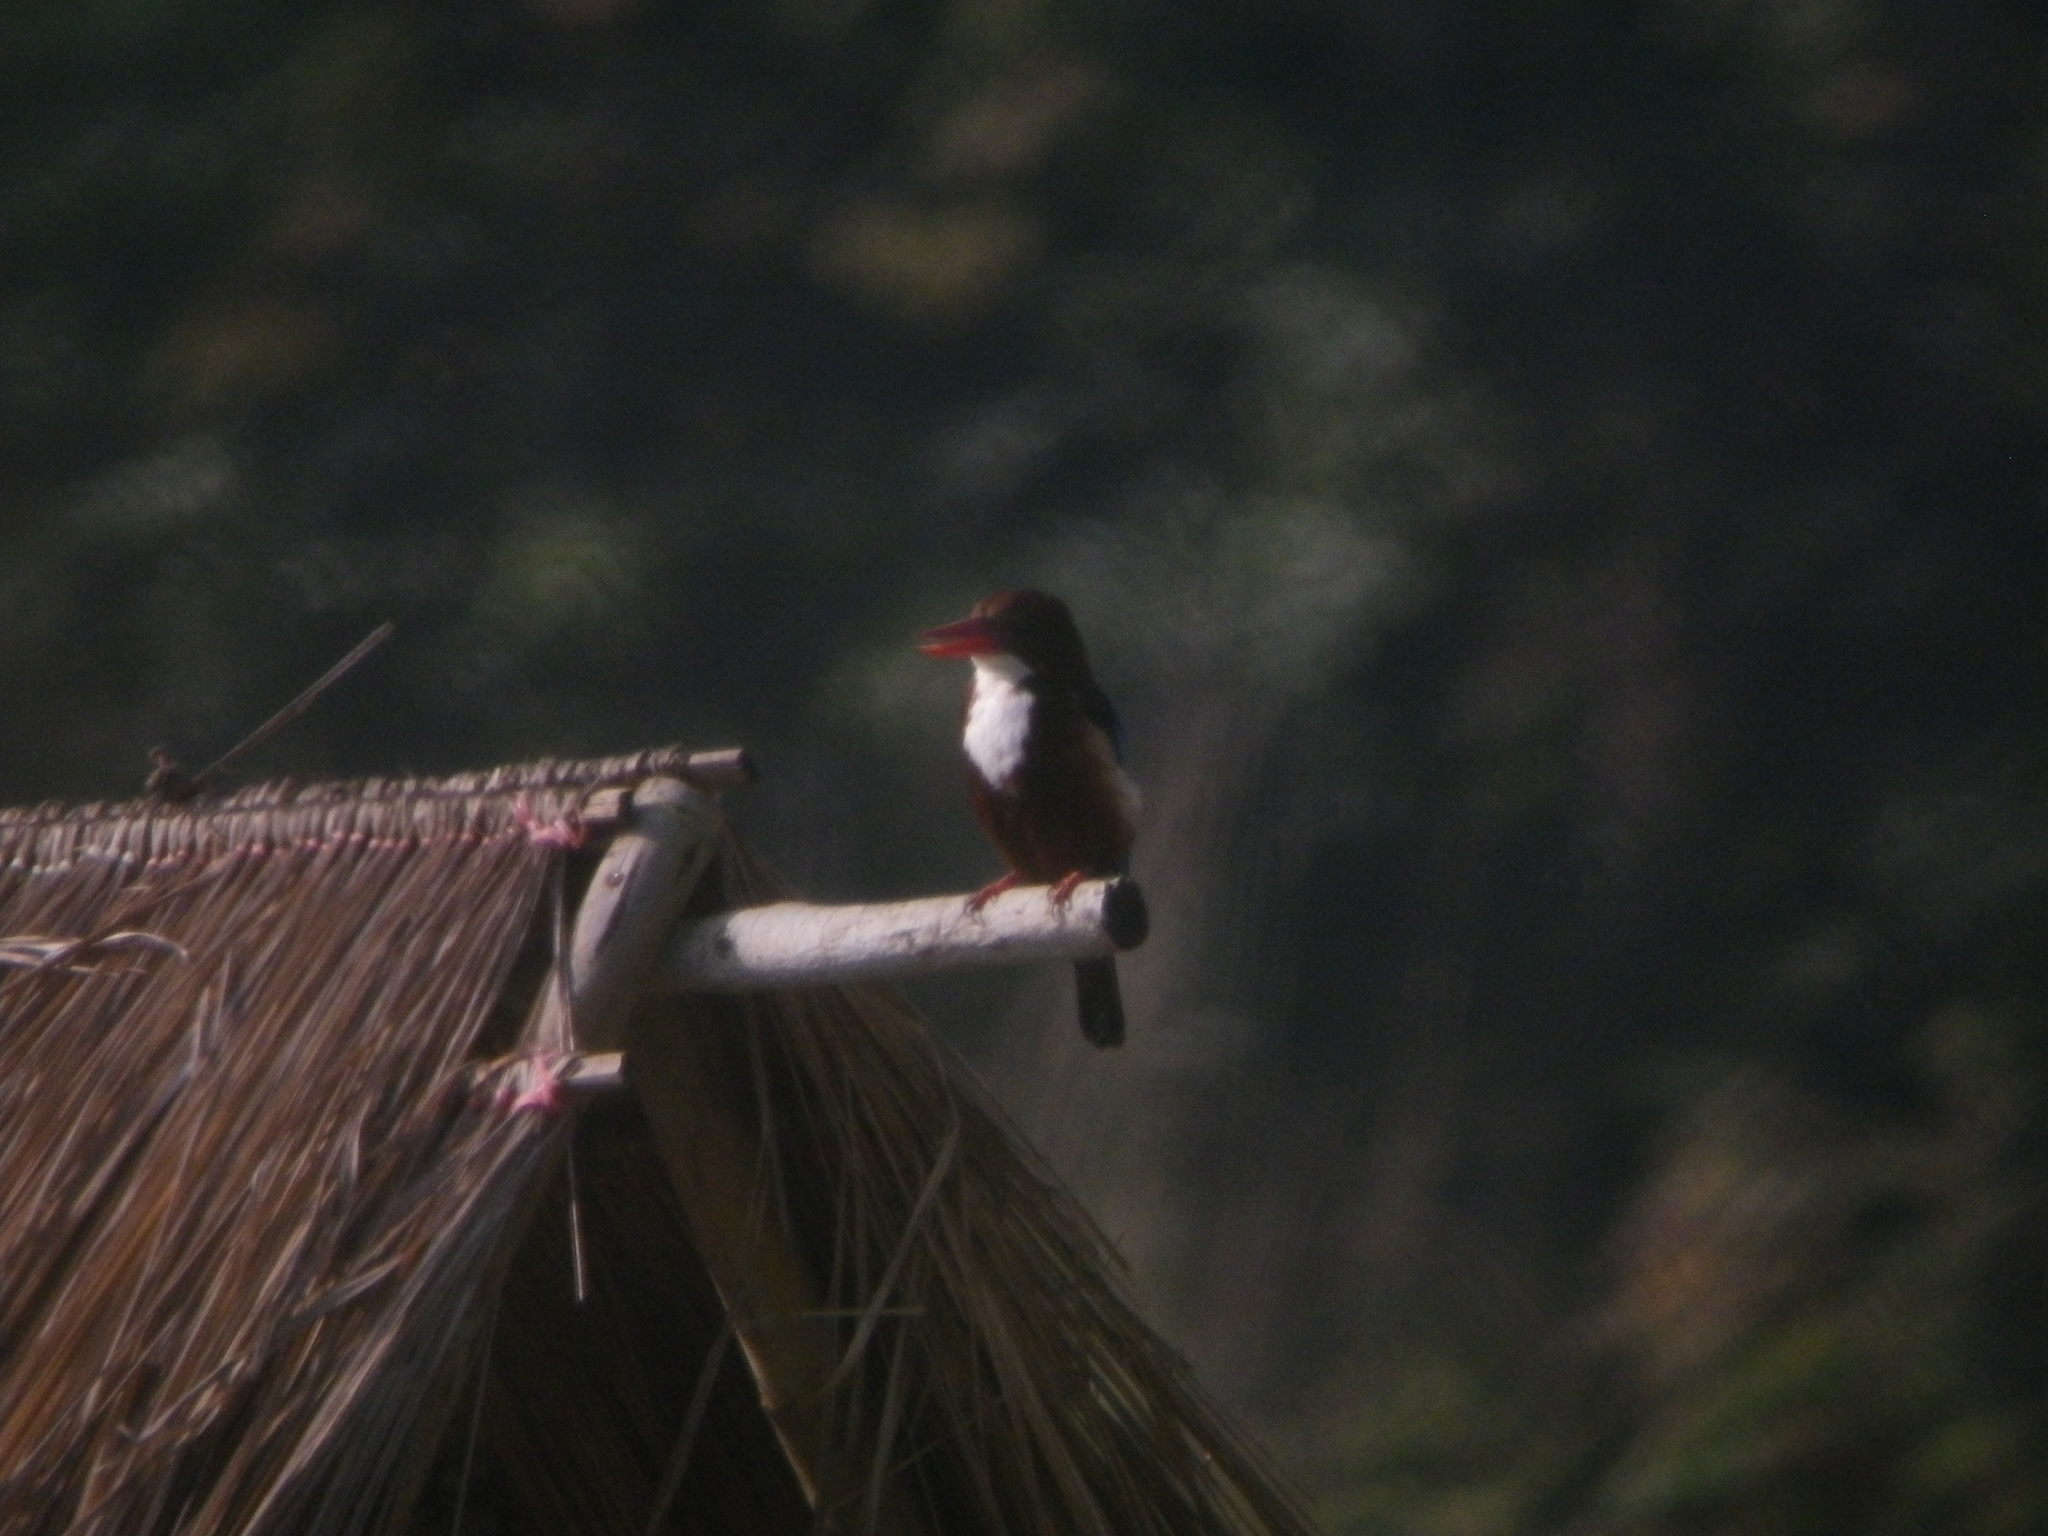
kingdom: Animalia
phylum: Chordata
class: Aves
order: Coraciiformes
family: Alcedinidae
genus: Halcyon
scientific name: Halcyon smyrnensis
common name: White-throated kingfisher
